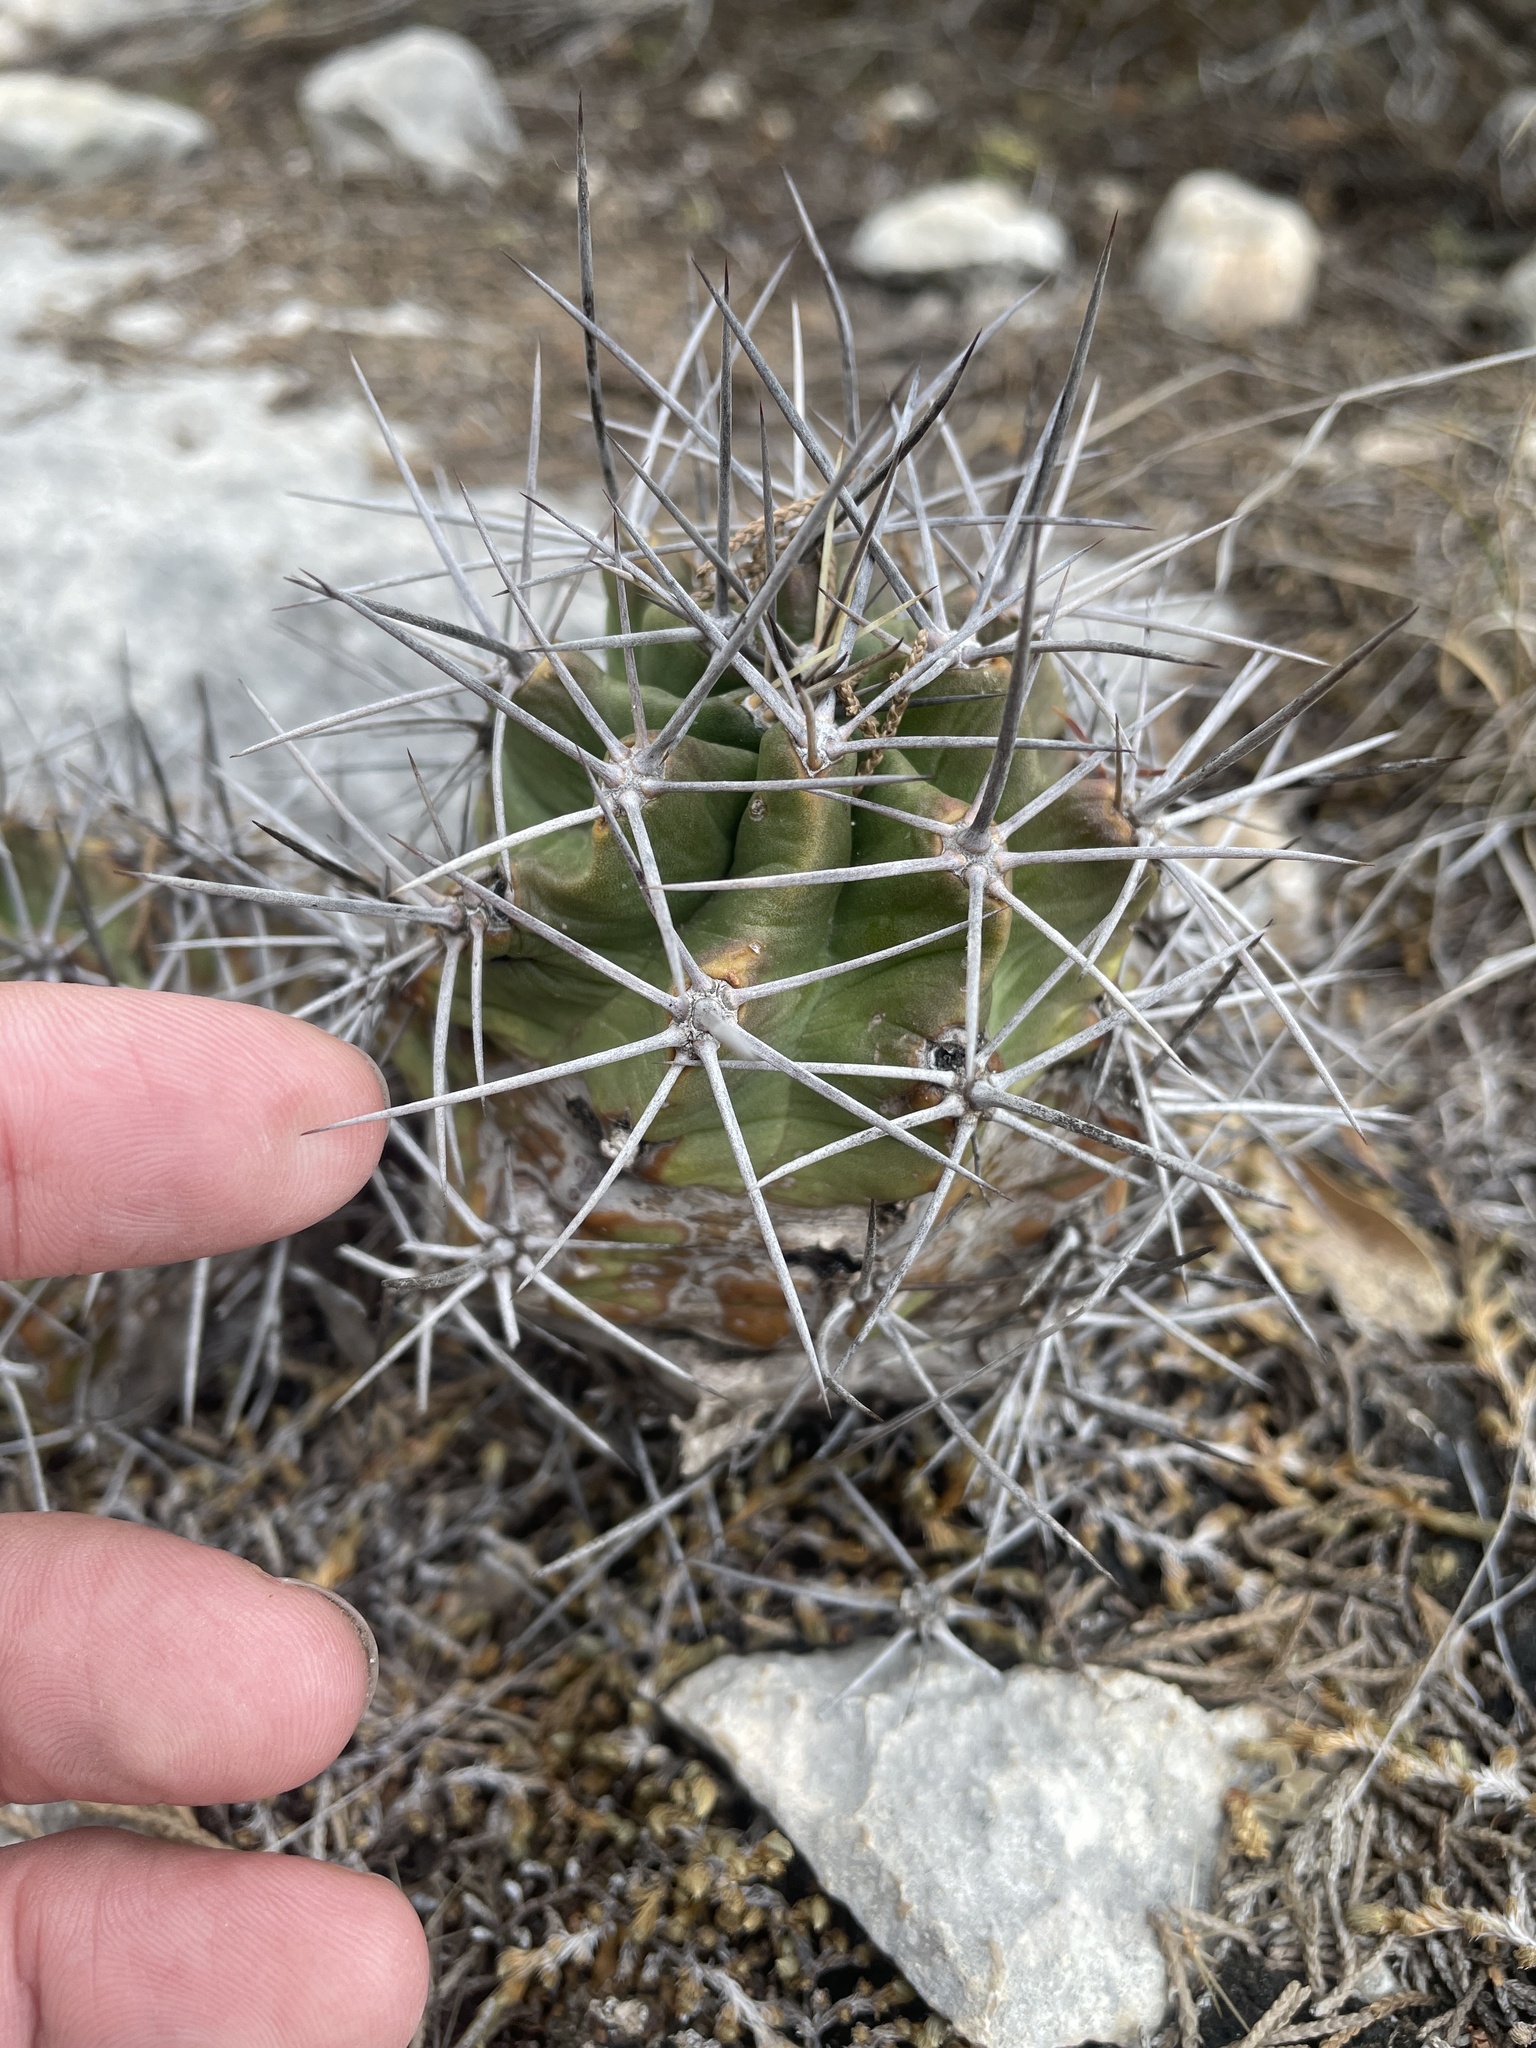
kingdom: Plantae
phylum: Tracheophyta
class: Magnoliopsida
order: Caryophyllales
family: Cactaceae
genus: Echinocereus
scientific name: Echinocereus coccineus
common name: Scarlet hedgehog cactus
